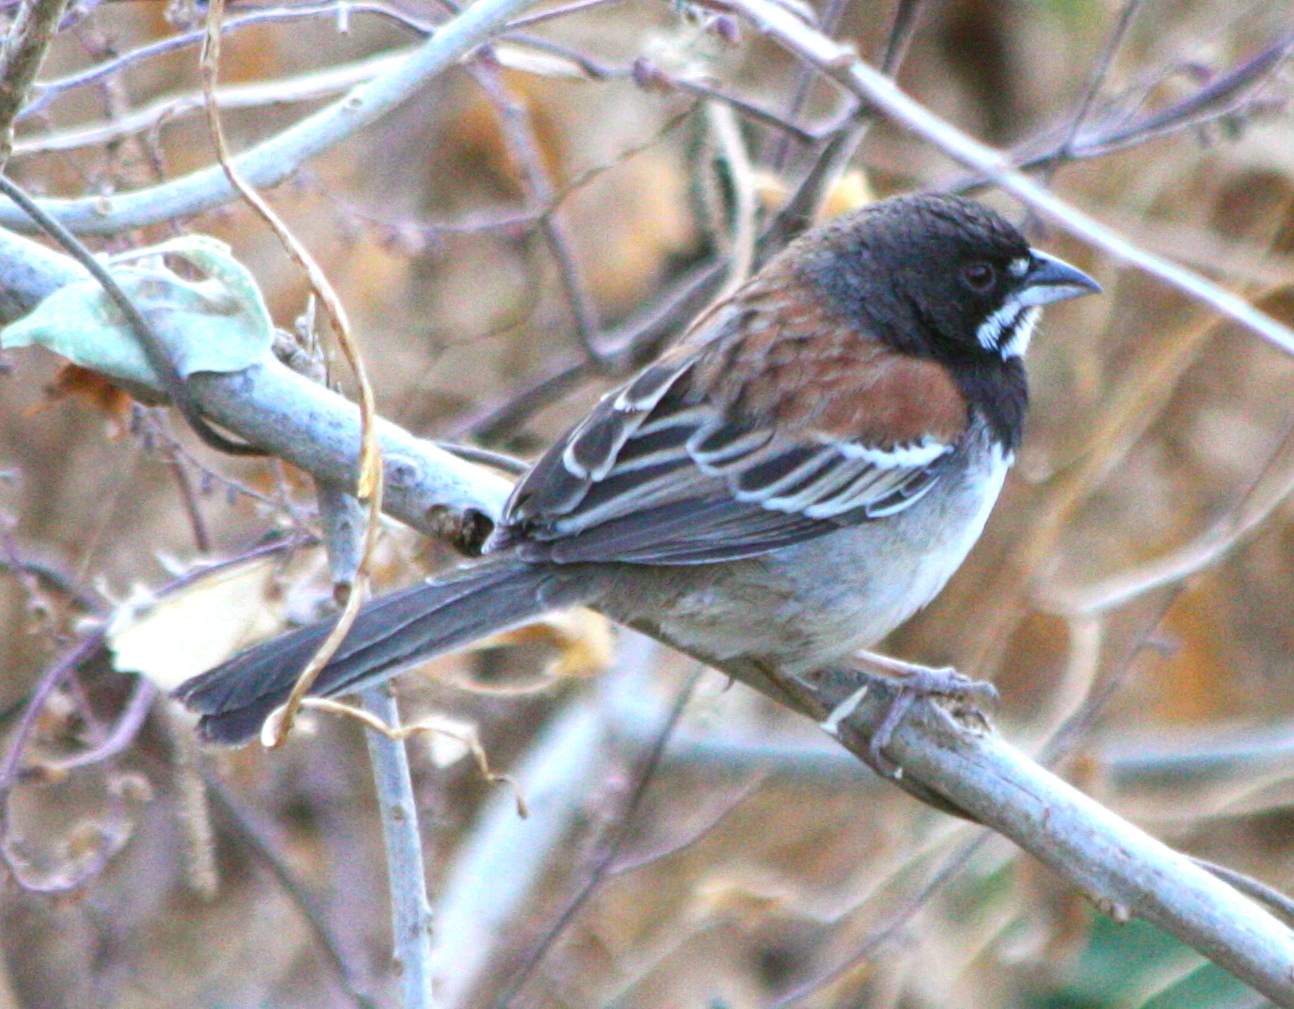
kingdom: Animalia
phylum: Chordata
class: Aves
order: Passeriformes
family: Passerellidae
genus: Peucaea
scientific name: Peucaea humeralis
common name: Black-chested sparrow
